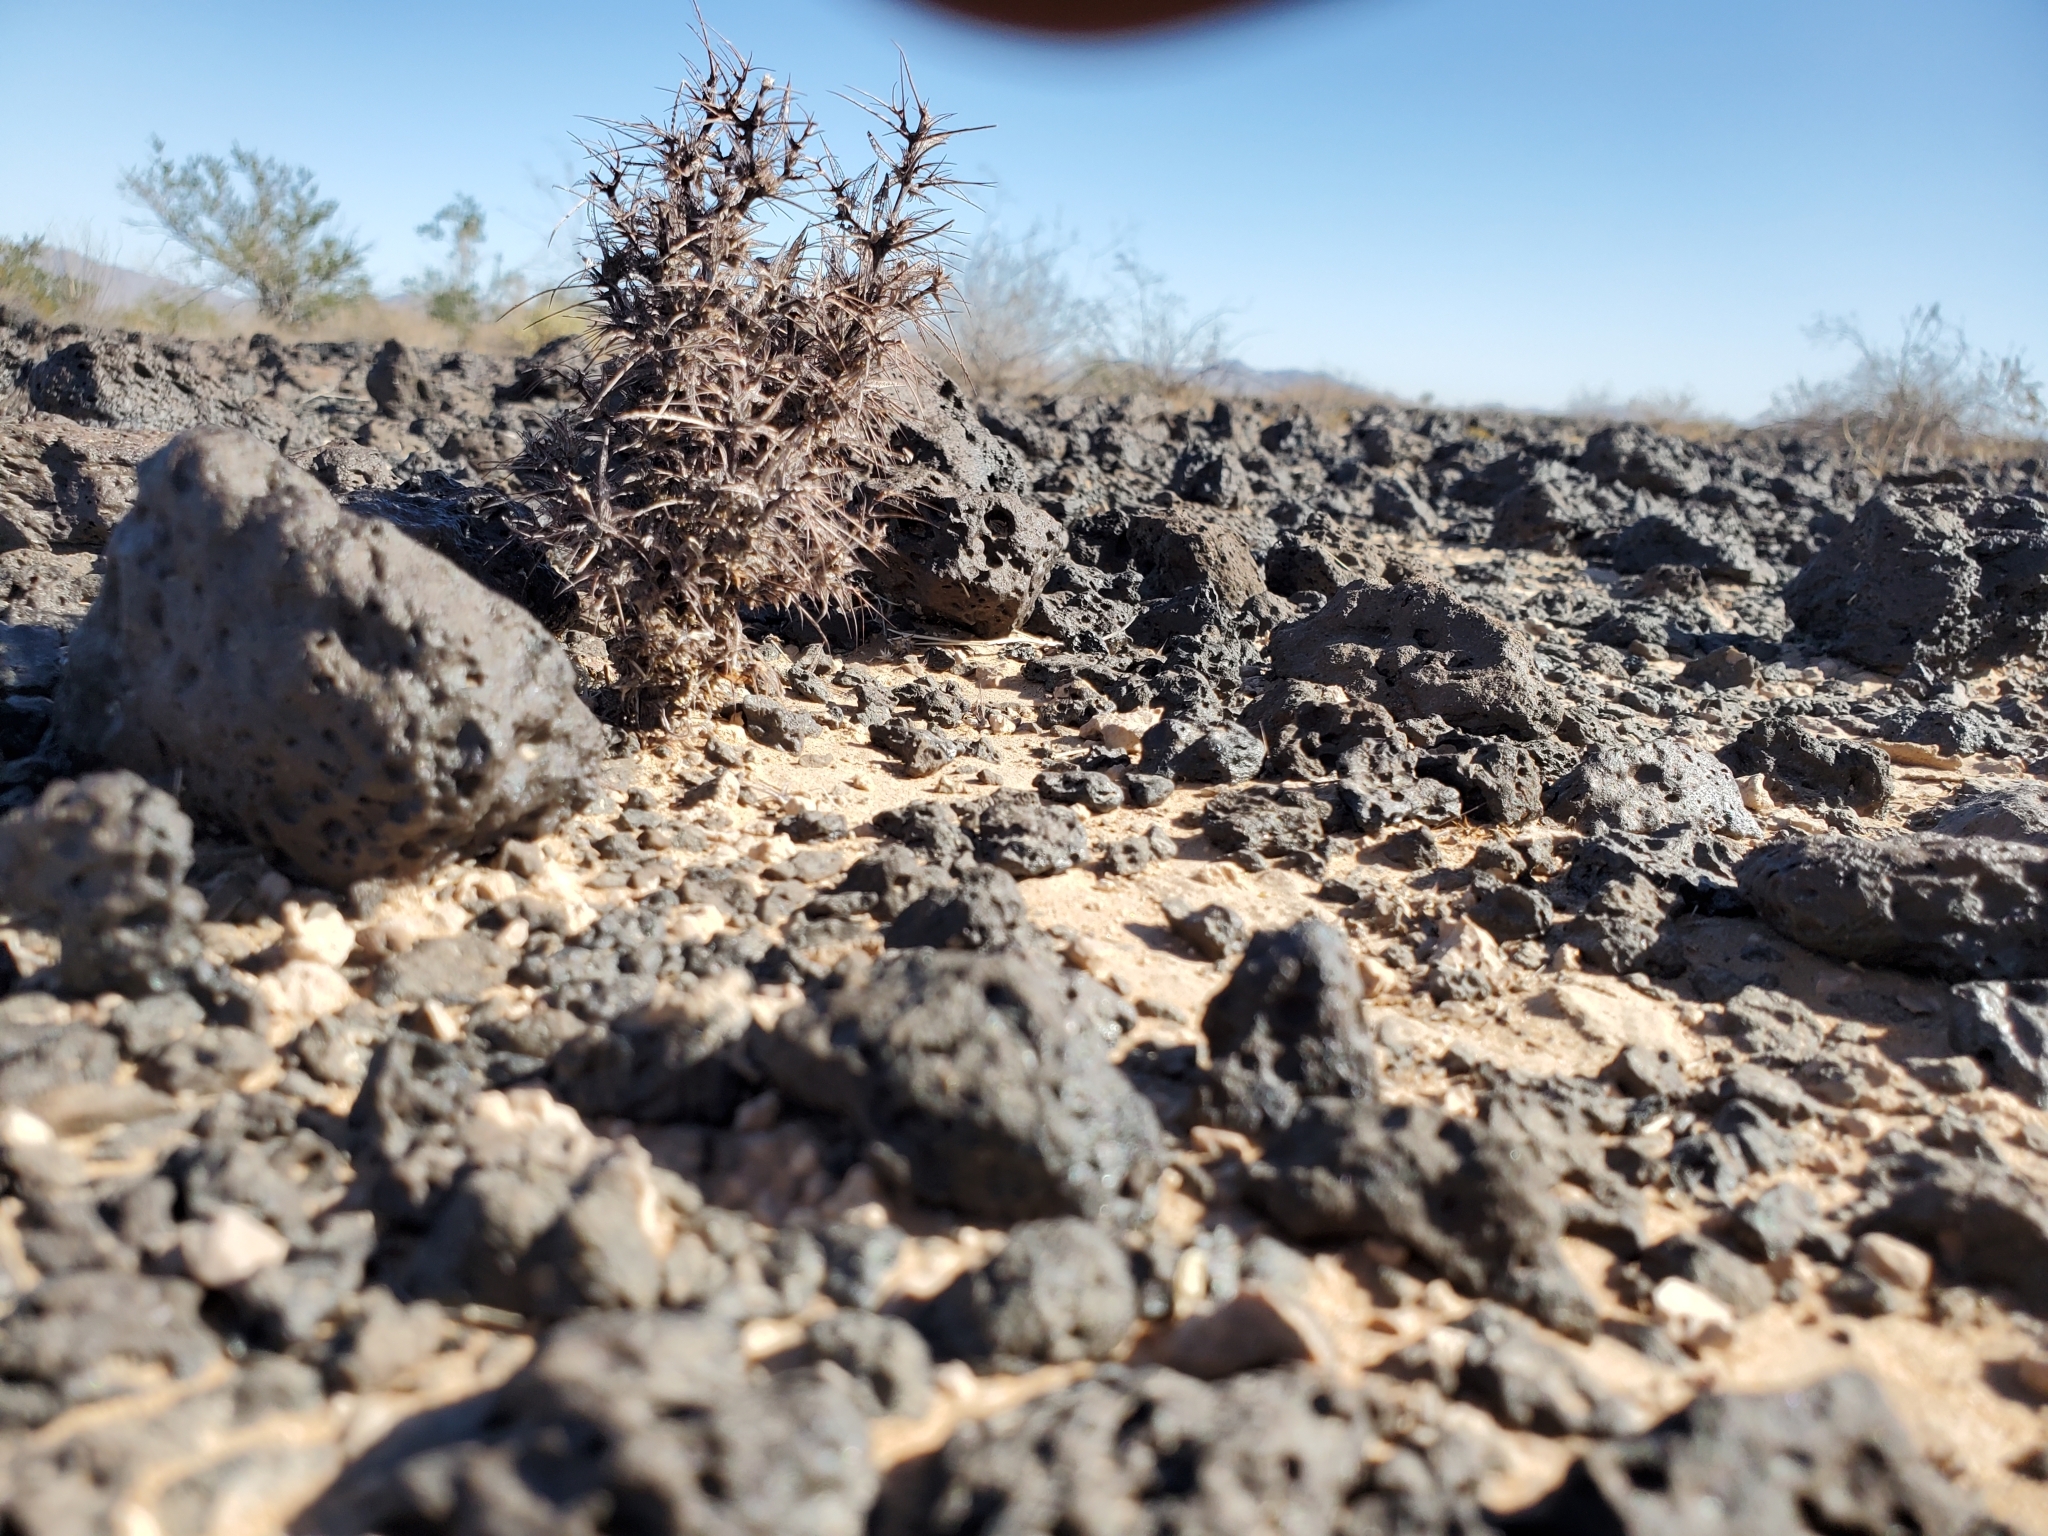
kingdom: Plantae
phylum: Tracheophyta
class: Magnoliopsida
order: Caryophyllales
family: Polygonaceae
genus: Chorizanthe
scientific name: Chorizanthe rigida
